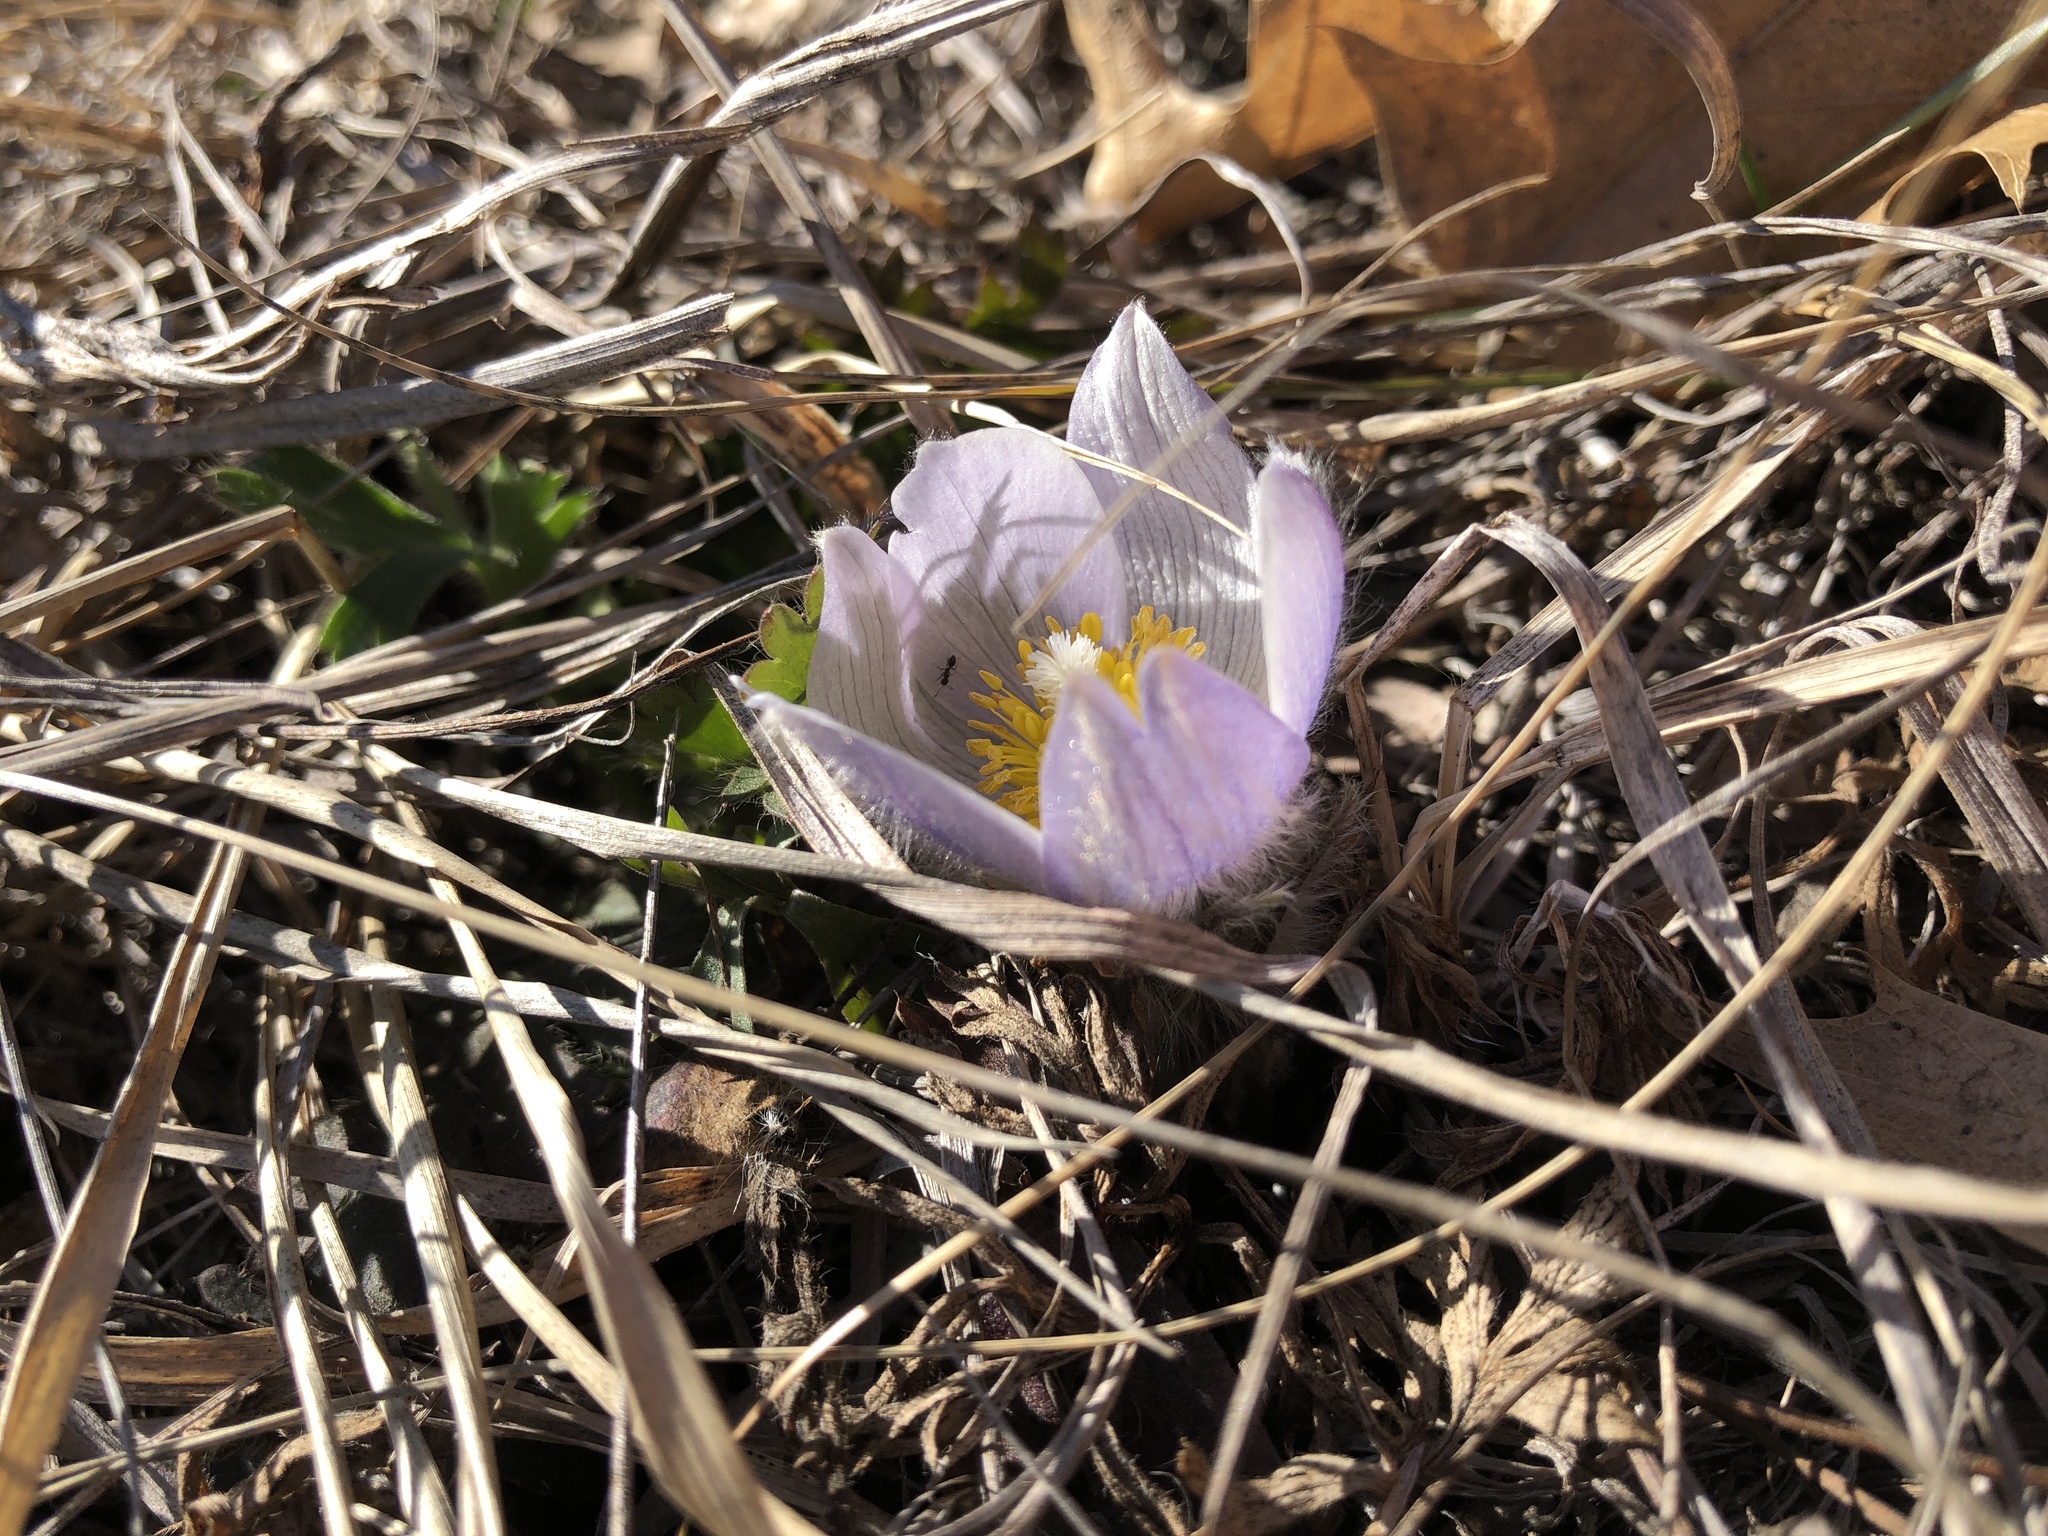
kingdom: Plantae
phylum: Tracheophyta
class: Magnoliopsida
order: Ranunculales
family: Ranunculaceae
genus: Pulsatilla
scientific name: Pulsatilla nuttalliana
